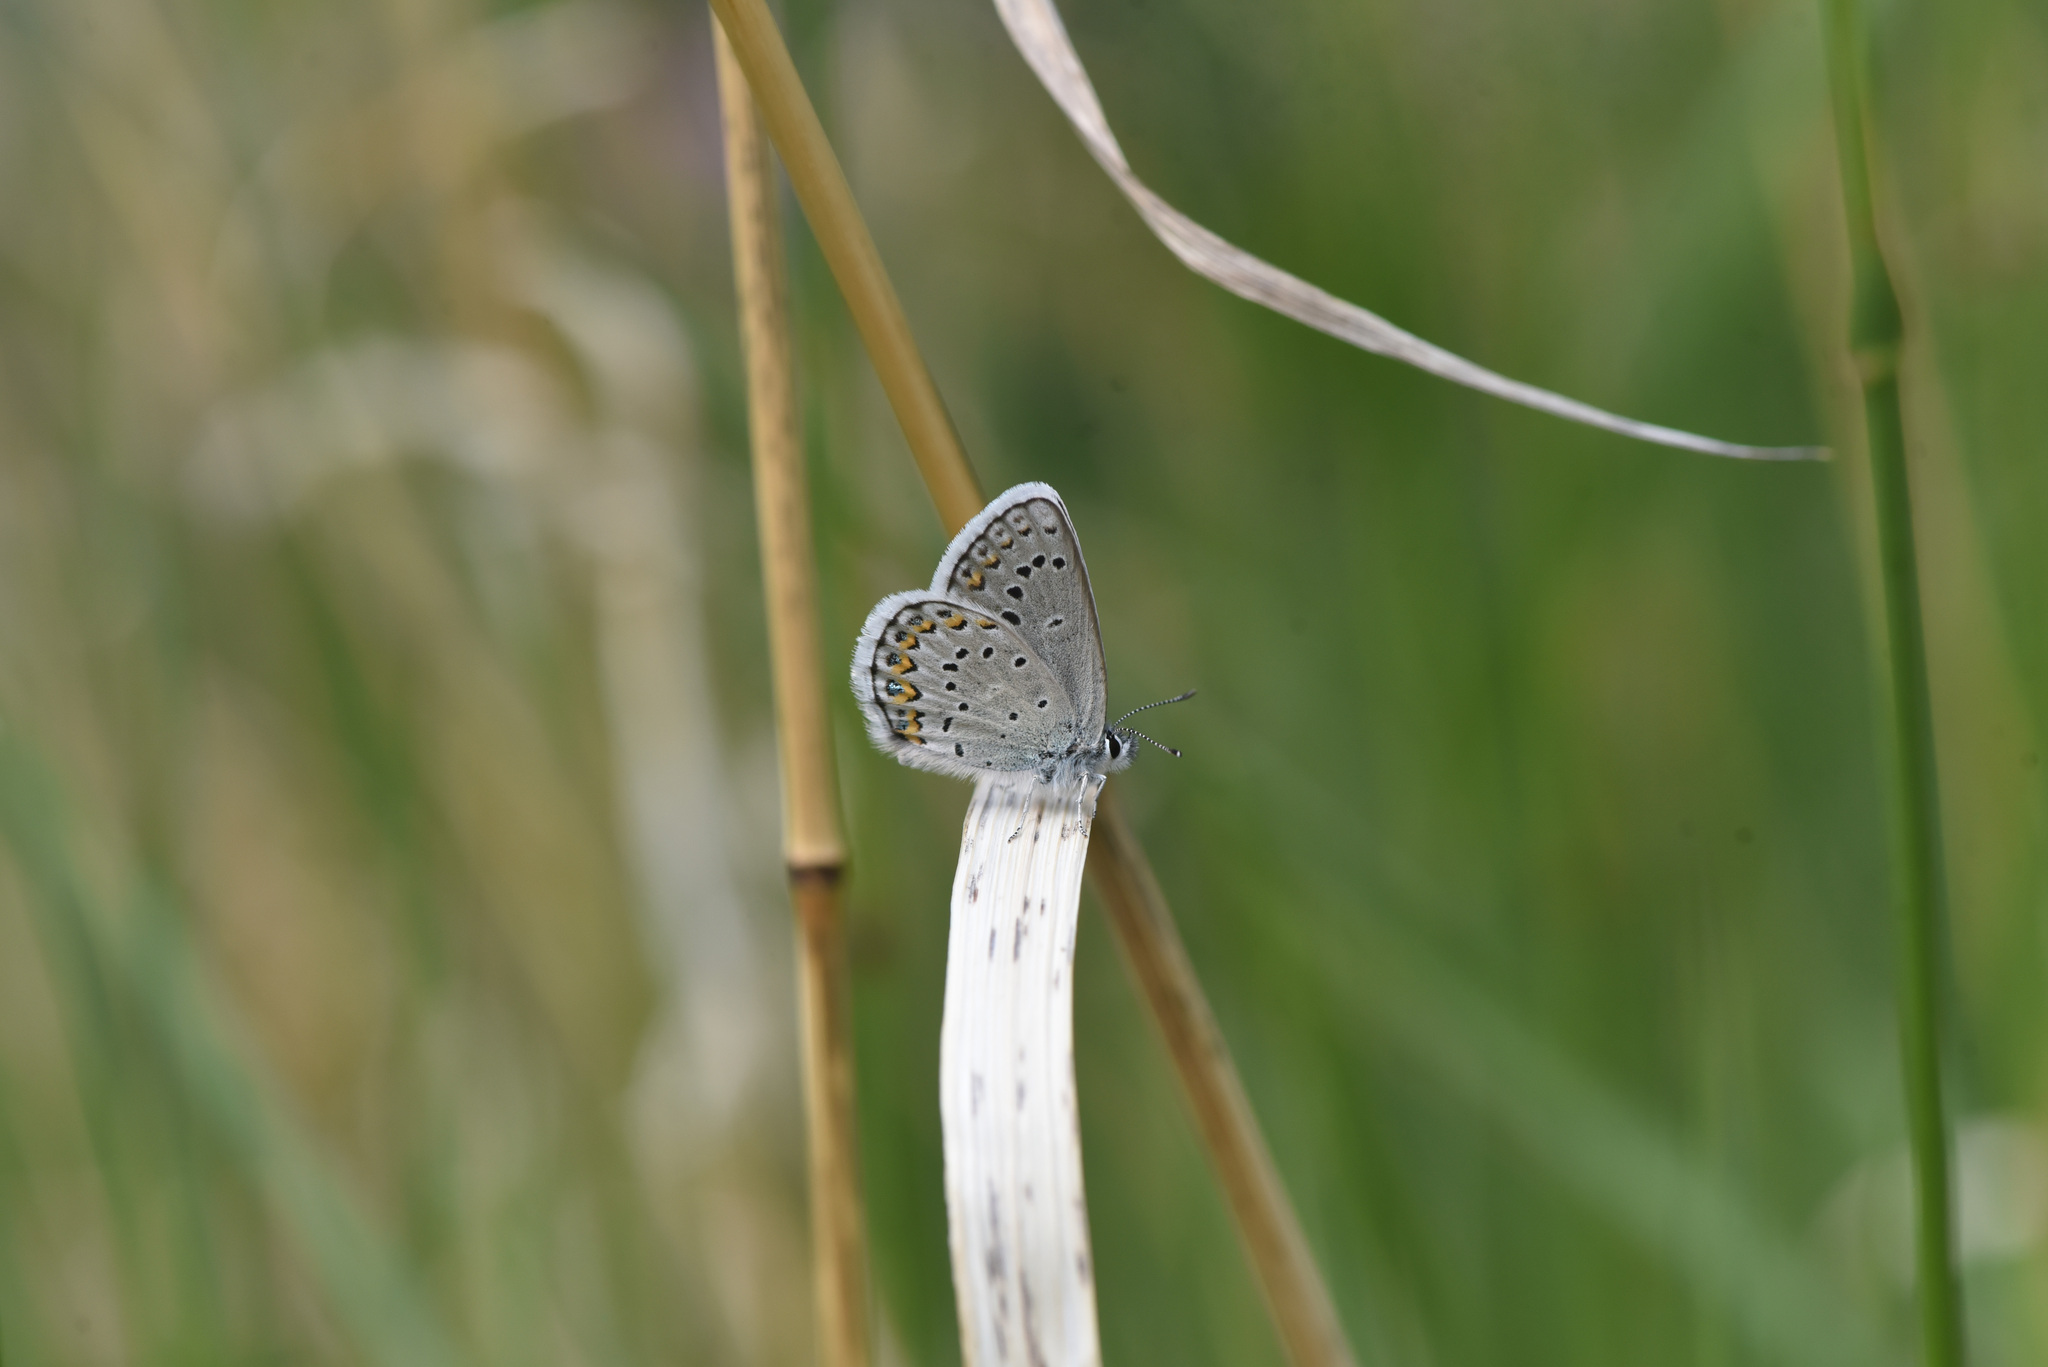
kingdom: Animalia
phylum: Arthropoda
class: Insecta
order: Lepidoptera
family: Lycaenidae
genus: Lycaeides
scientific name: Lycaeides idas
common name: Northern blue
